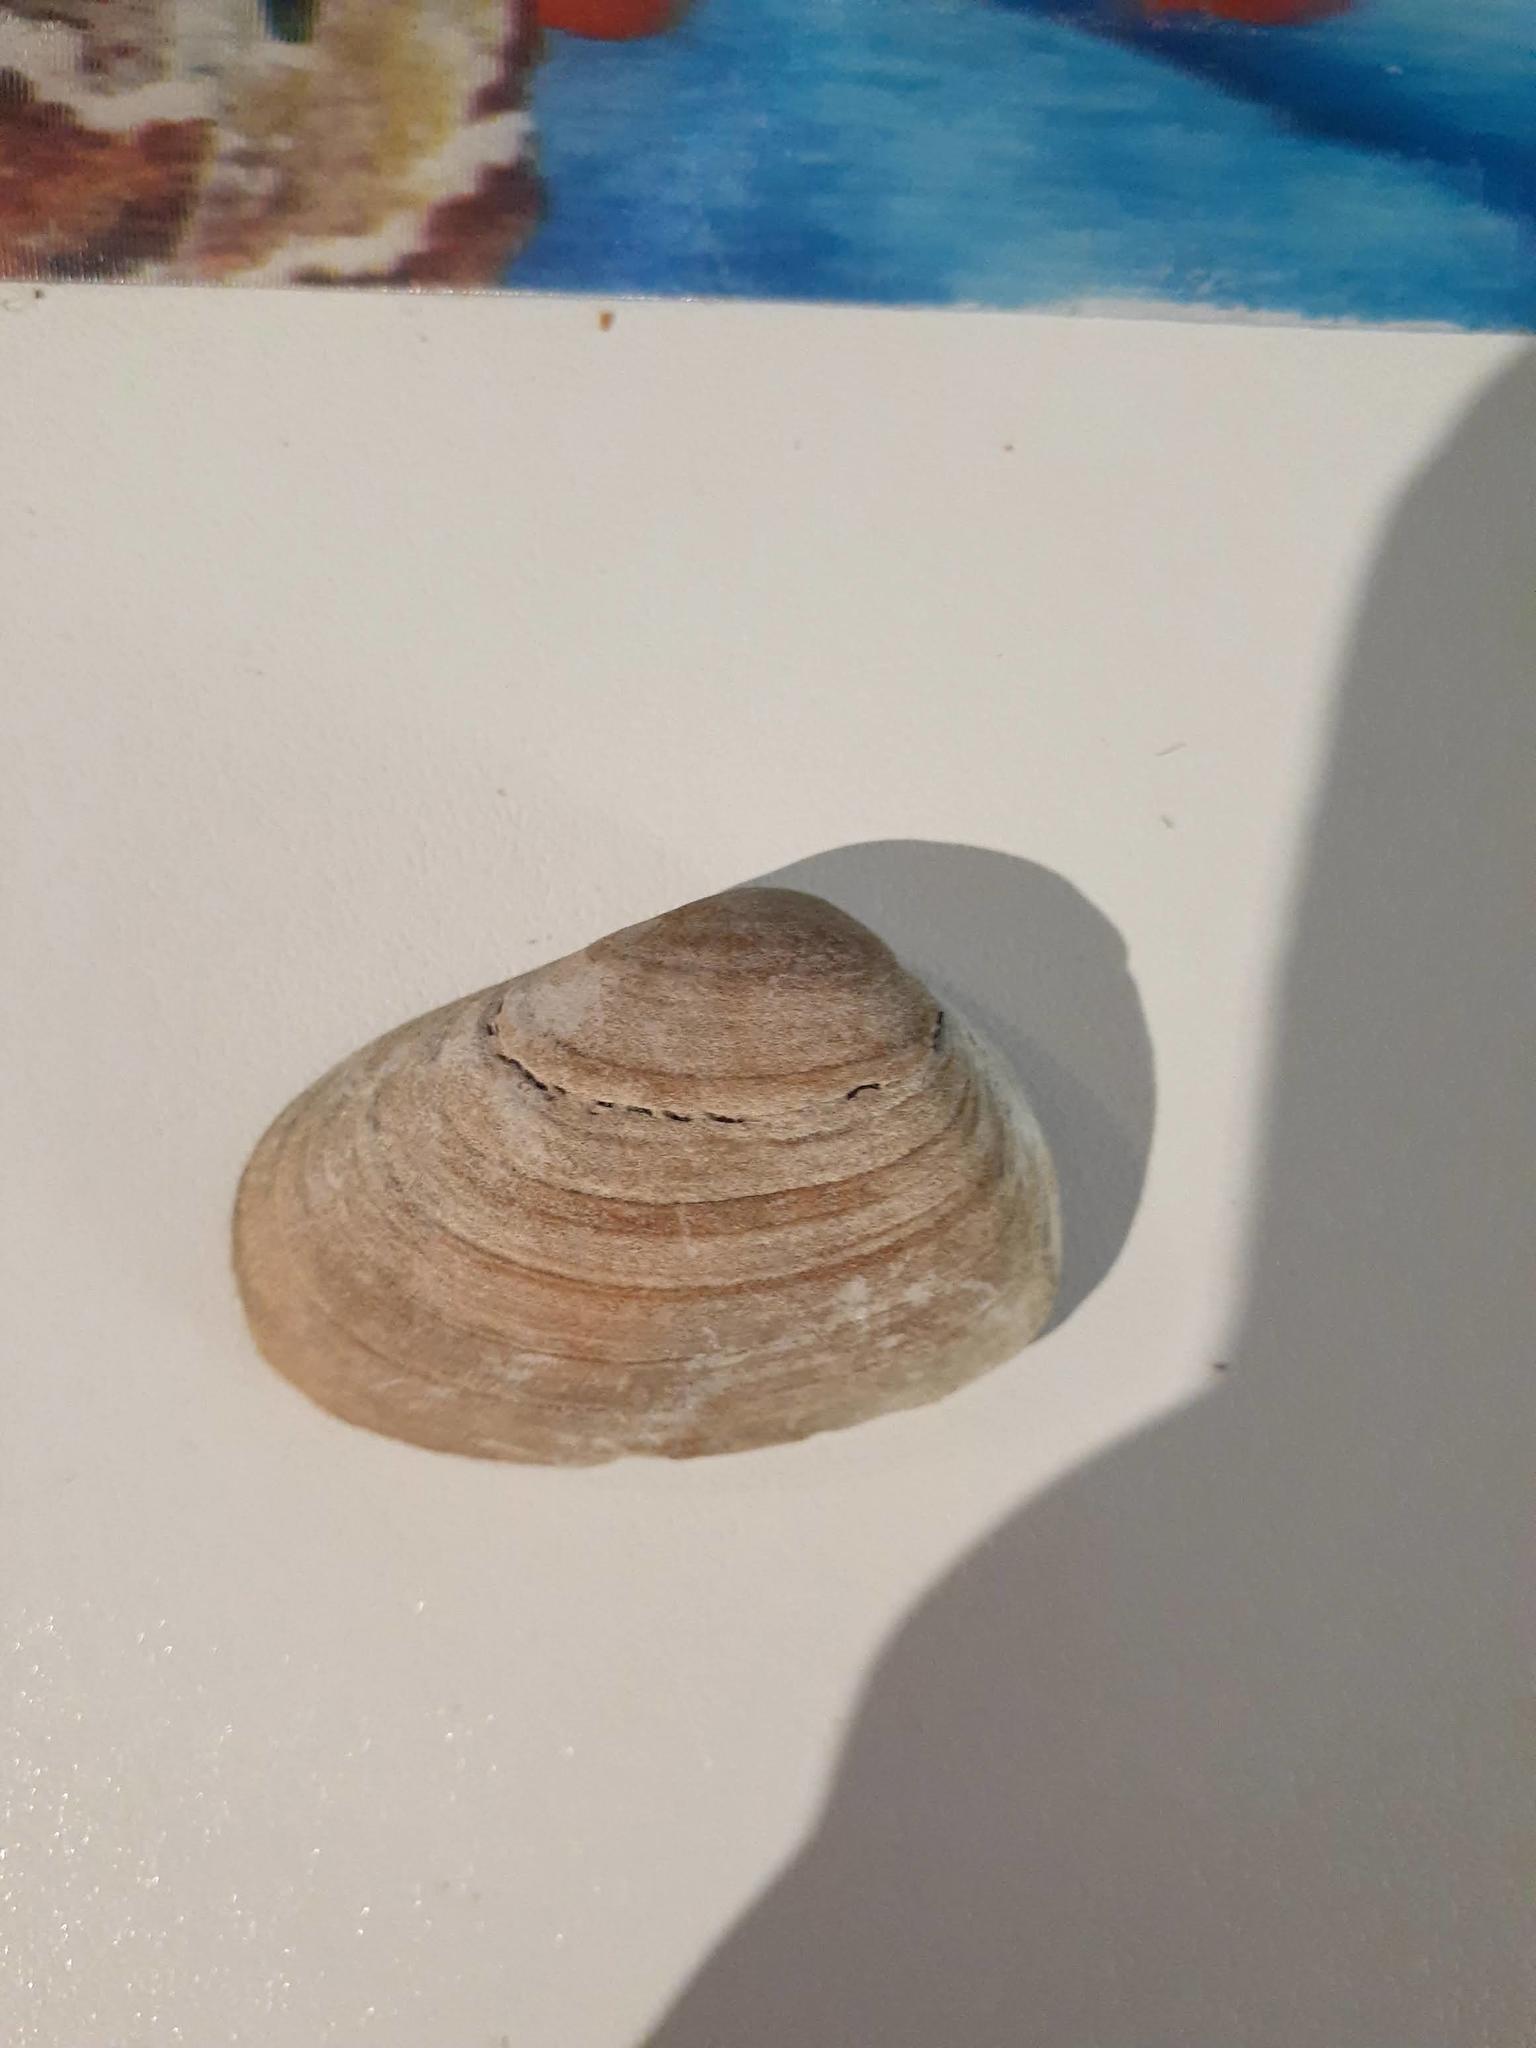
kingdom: Animalia
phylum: Mollusca
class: Bivalvia
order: Venerida
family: Mesodesmatidae
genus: Mesodesma
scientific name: Mesodesma arctatum
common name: Compressed clam
